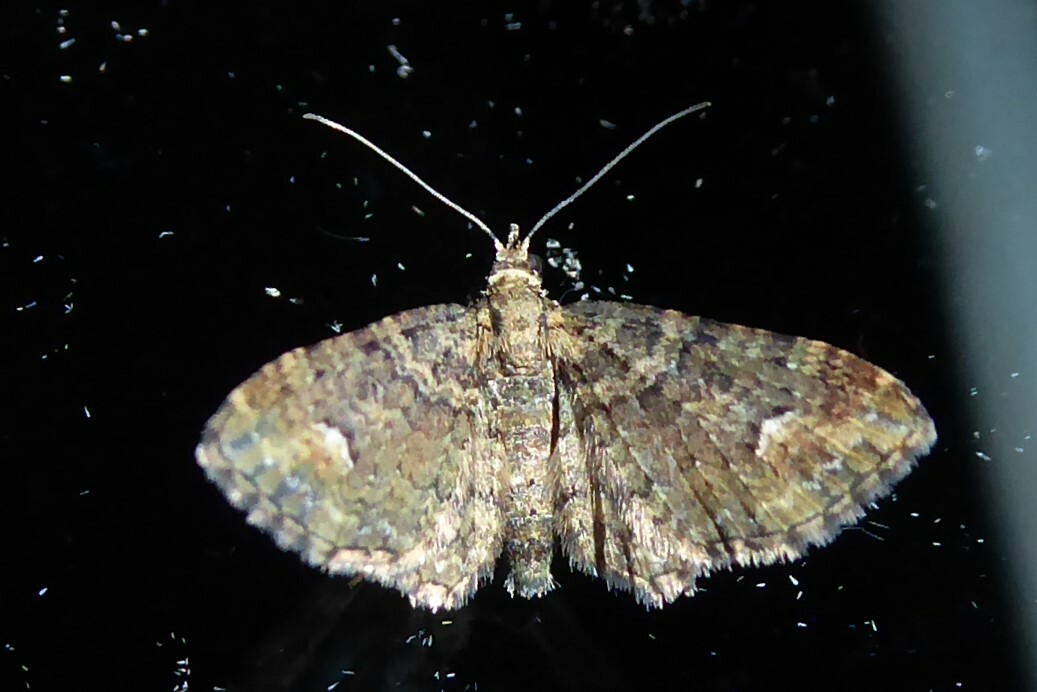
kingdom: Animalia
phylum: Arthropoda
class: Insecta
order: Lepidoptera
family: Geometridae
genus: Pasiphilodes
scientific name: Pasiphilodes testulata
